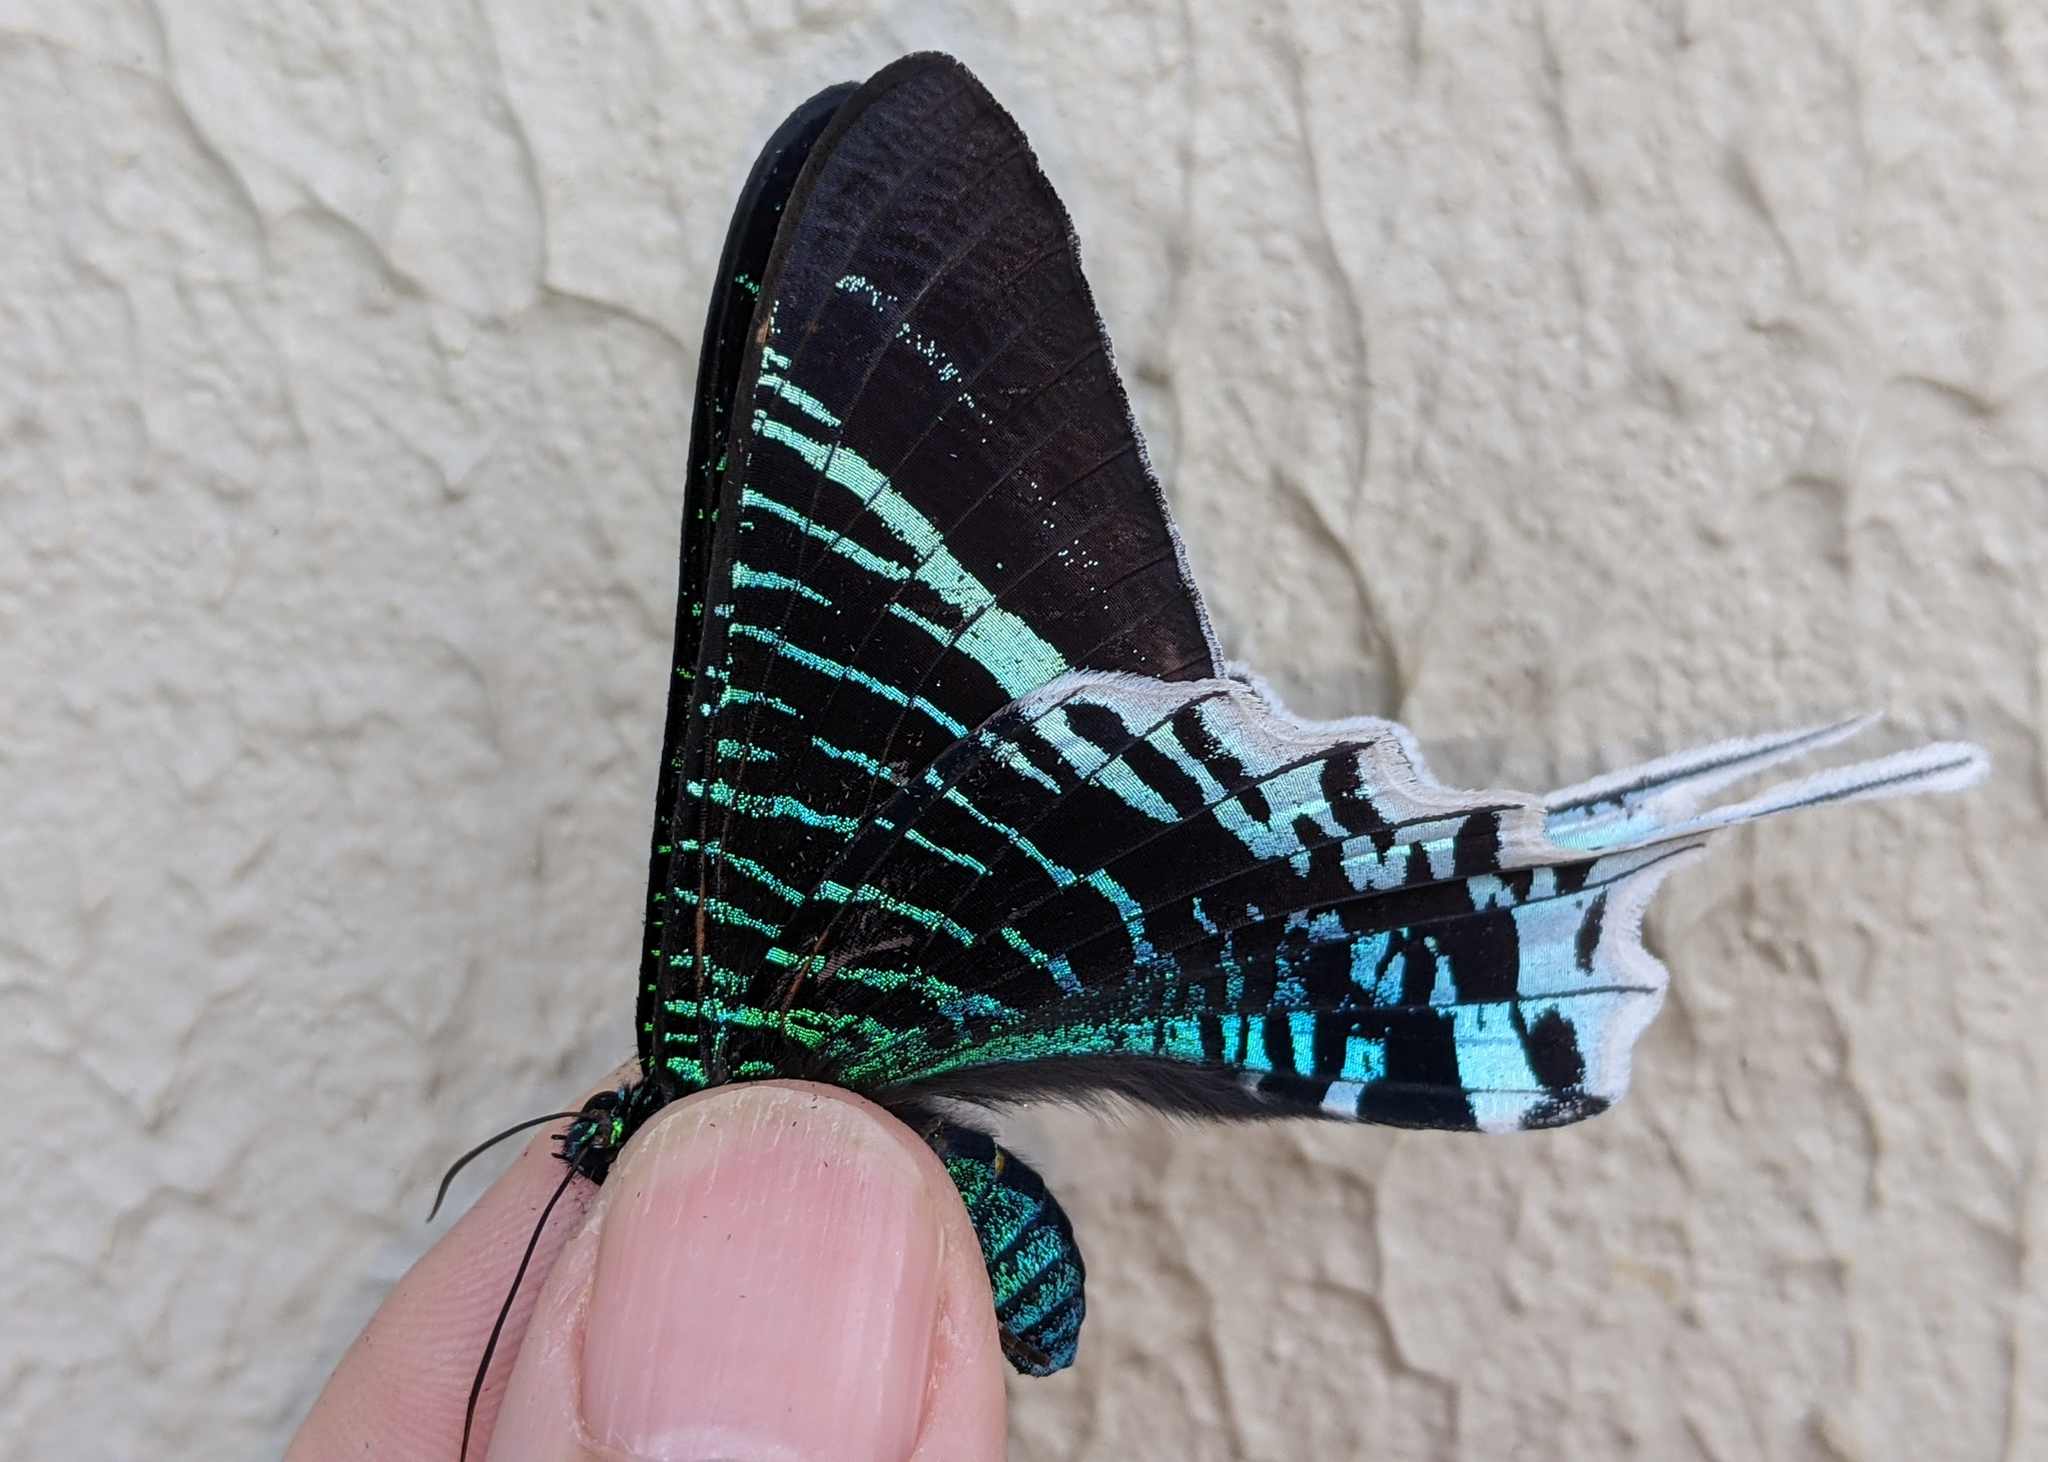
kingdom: Animalia
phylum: Arthropoda
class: Insecta
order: Lepidoptera
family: Uraniidae
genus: Urania
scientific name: Urania leilus
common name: Peacock moth
